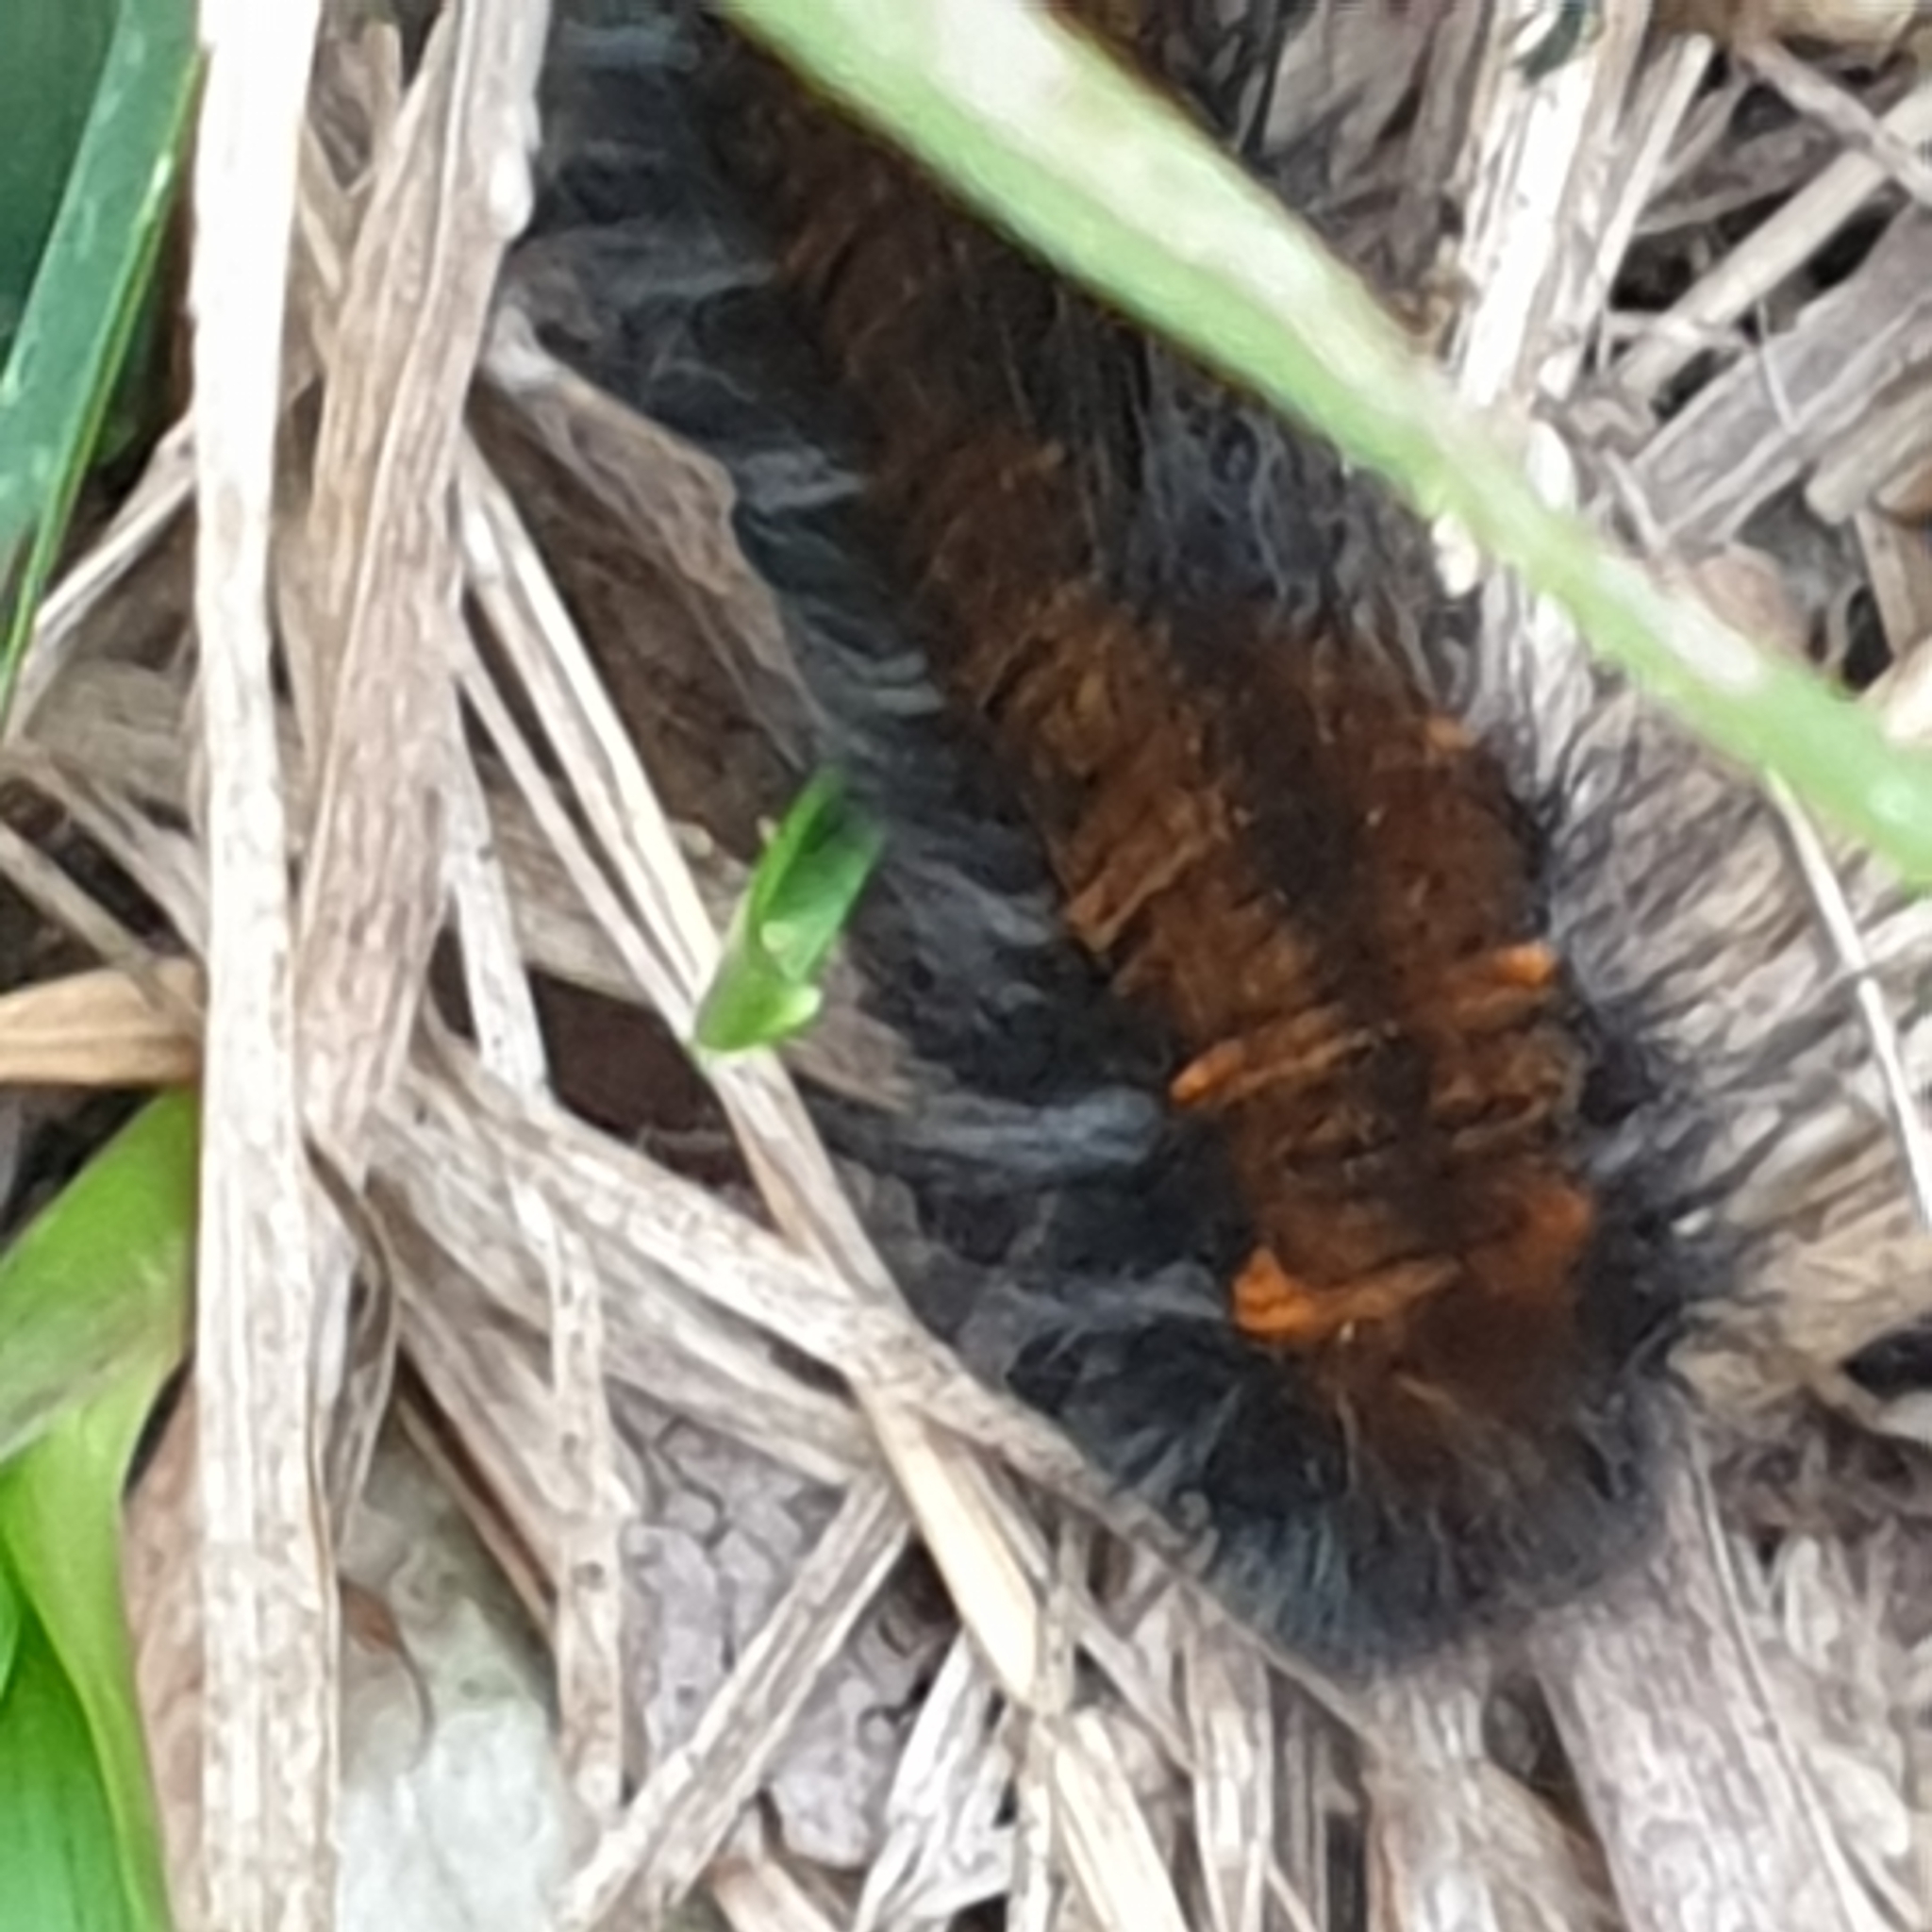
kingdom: Animalia
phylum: Arthropoda
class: Insecta
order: Lepidoptera
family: Lasiocampidae
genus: Macrothylacia
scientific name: Macrothylacia rubi
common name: Fox moth
